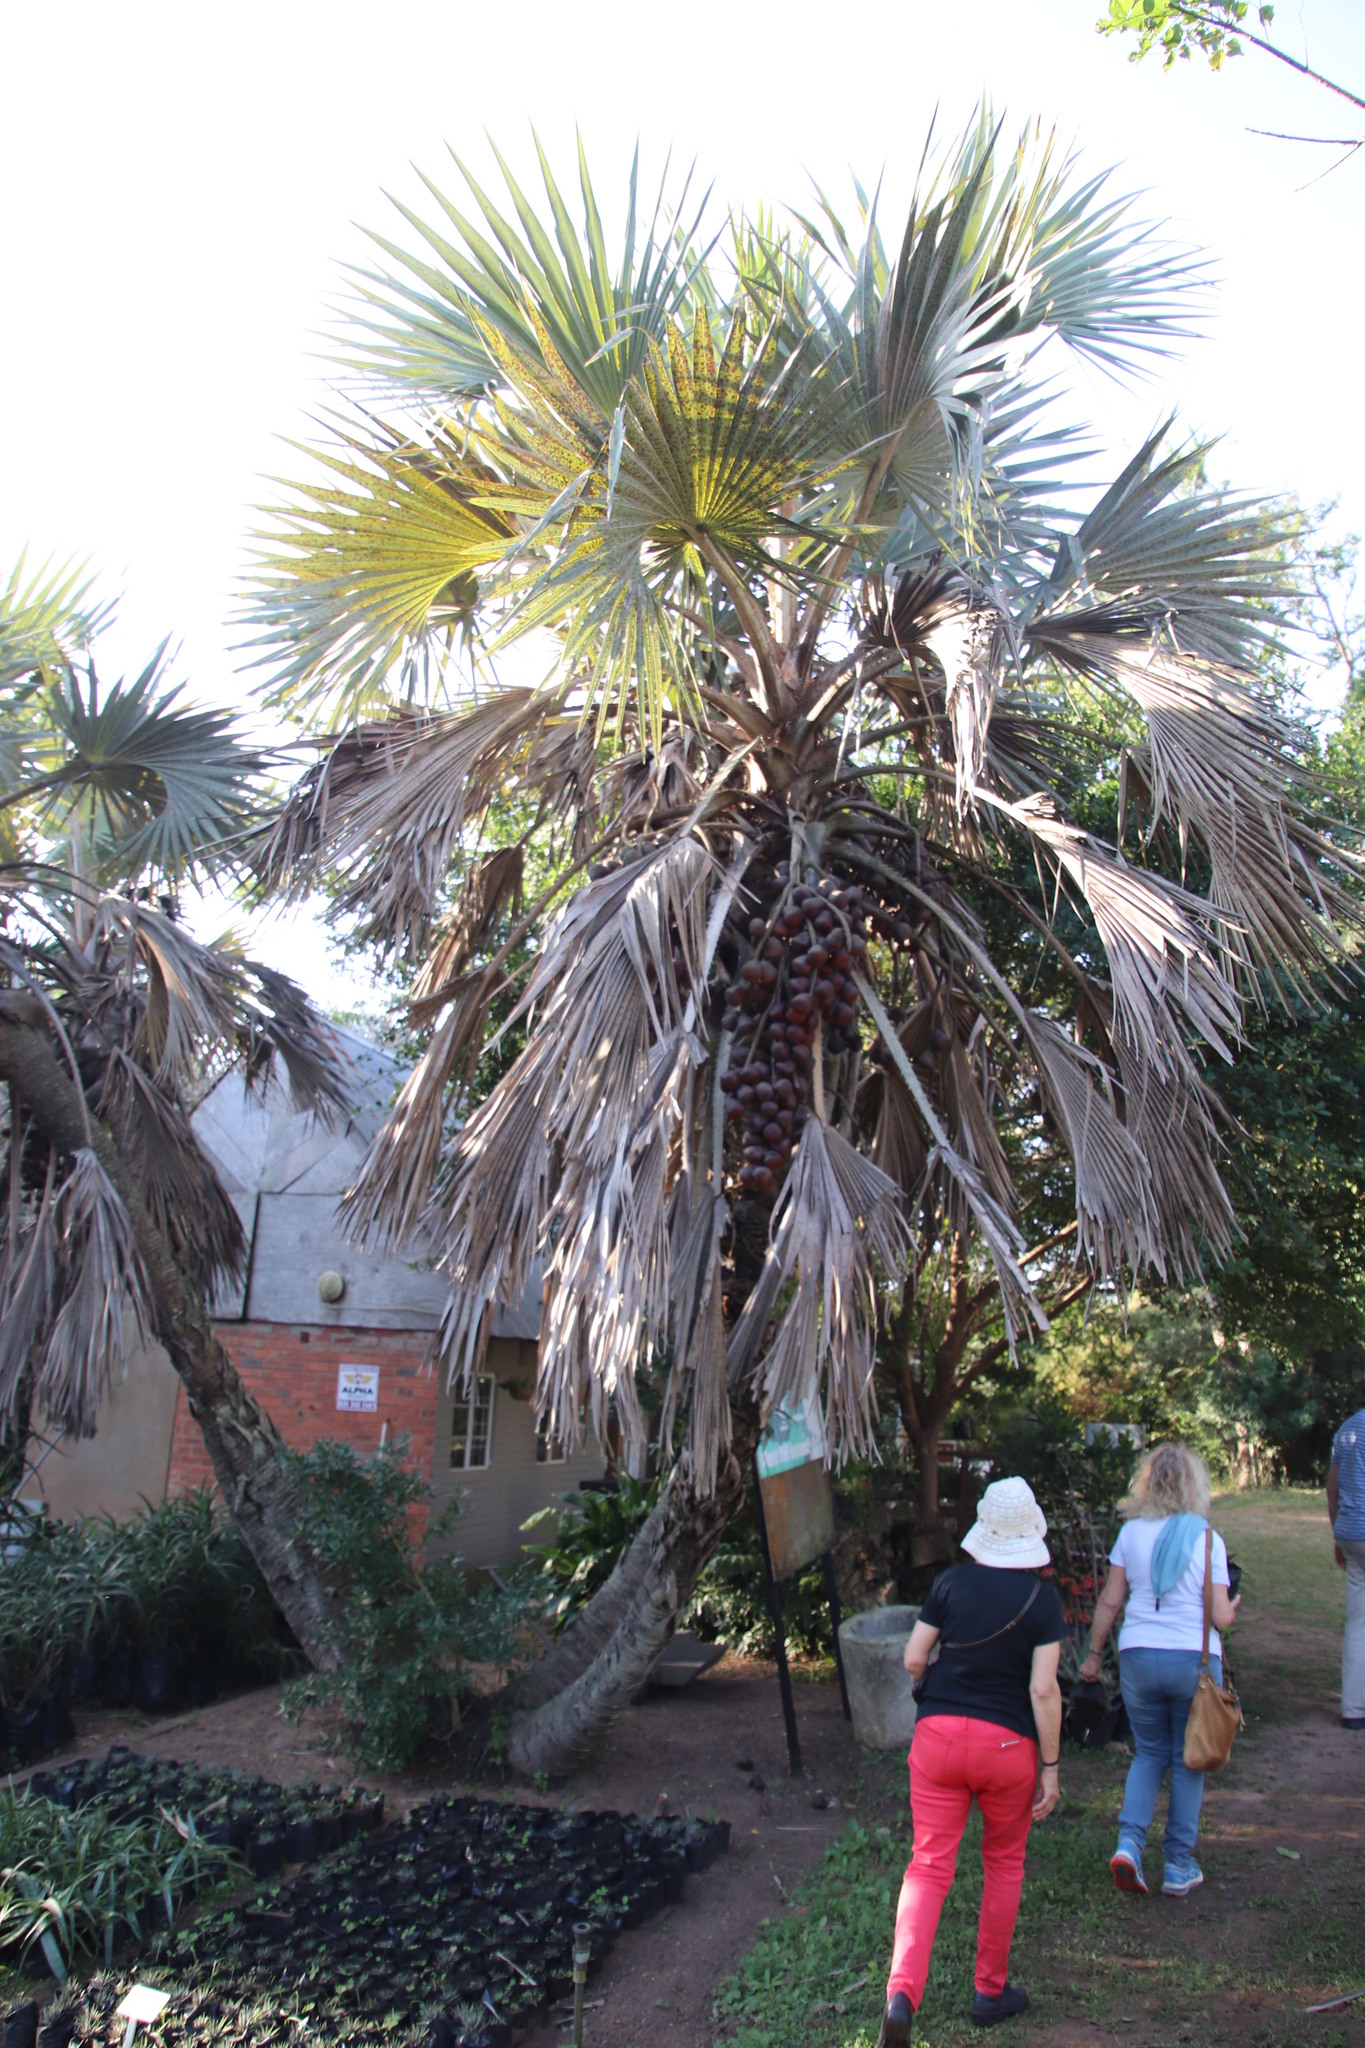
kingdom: Plantae
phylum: Tracheophyta
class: Liliopsida
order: Arecales
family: Arecaceae
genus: Hyphaene
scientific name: Hyphaene coriacea
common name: Ilala palm
